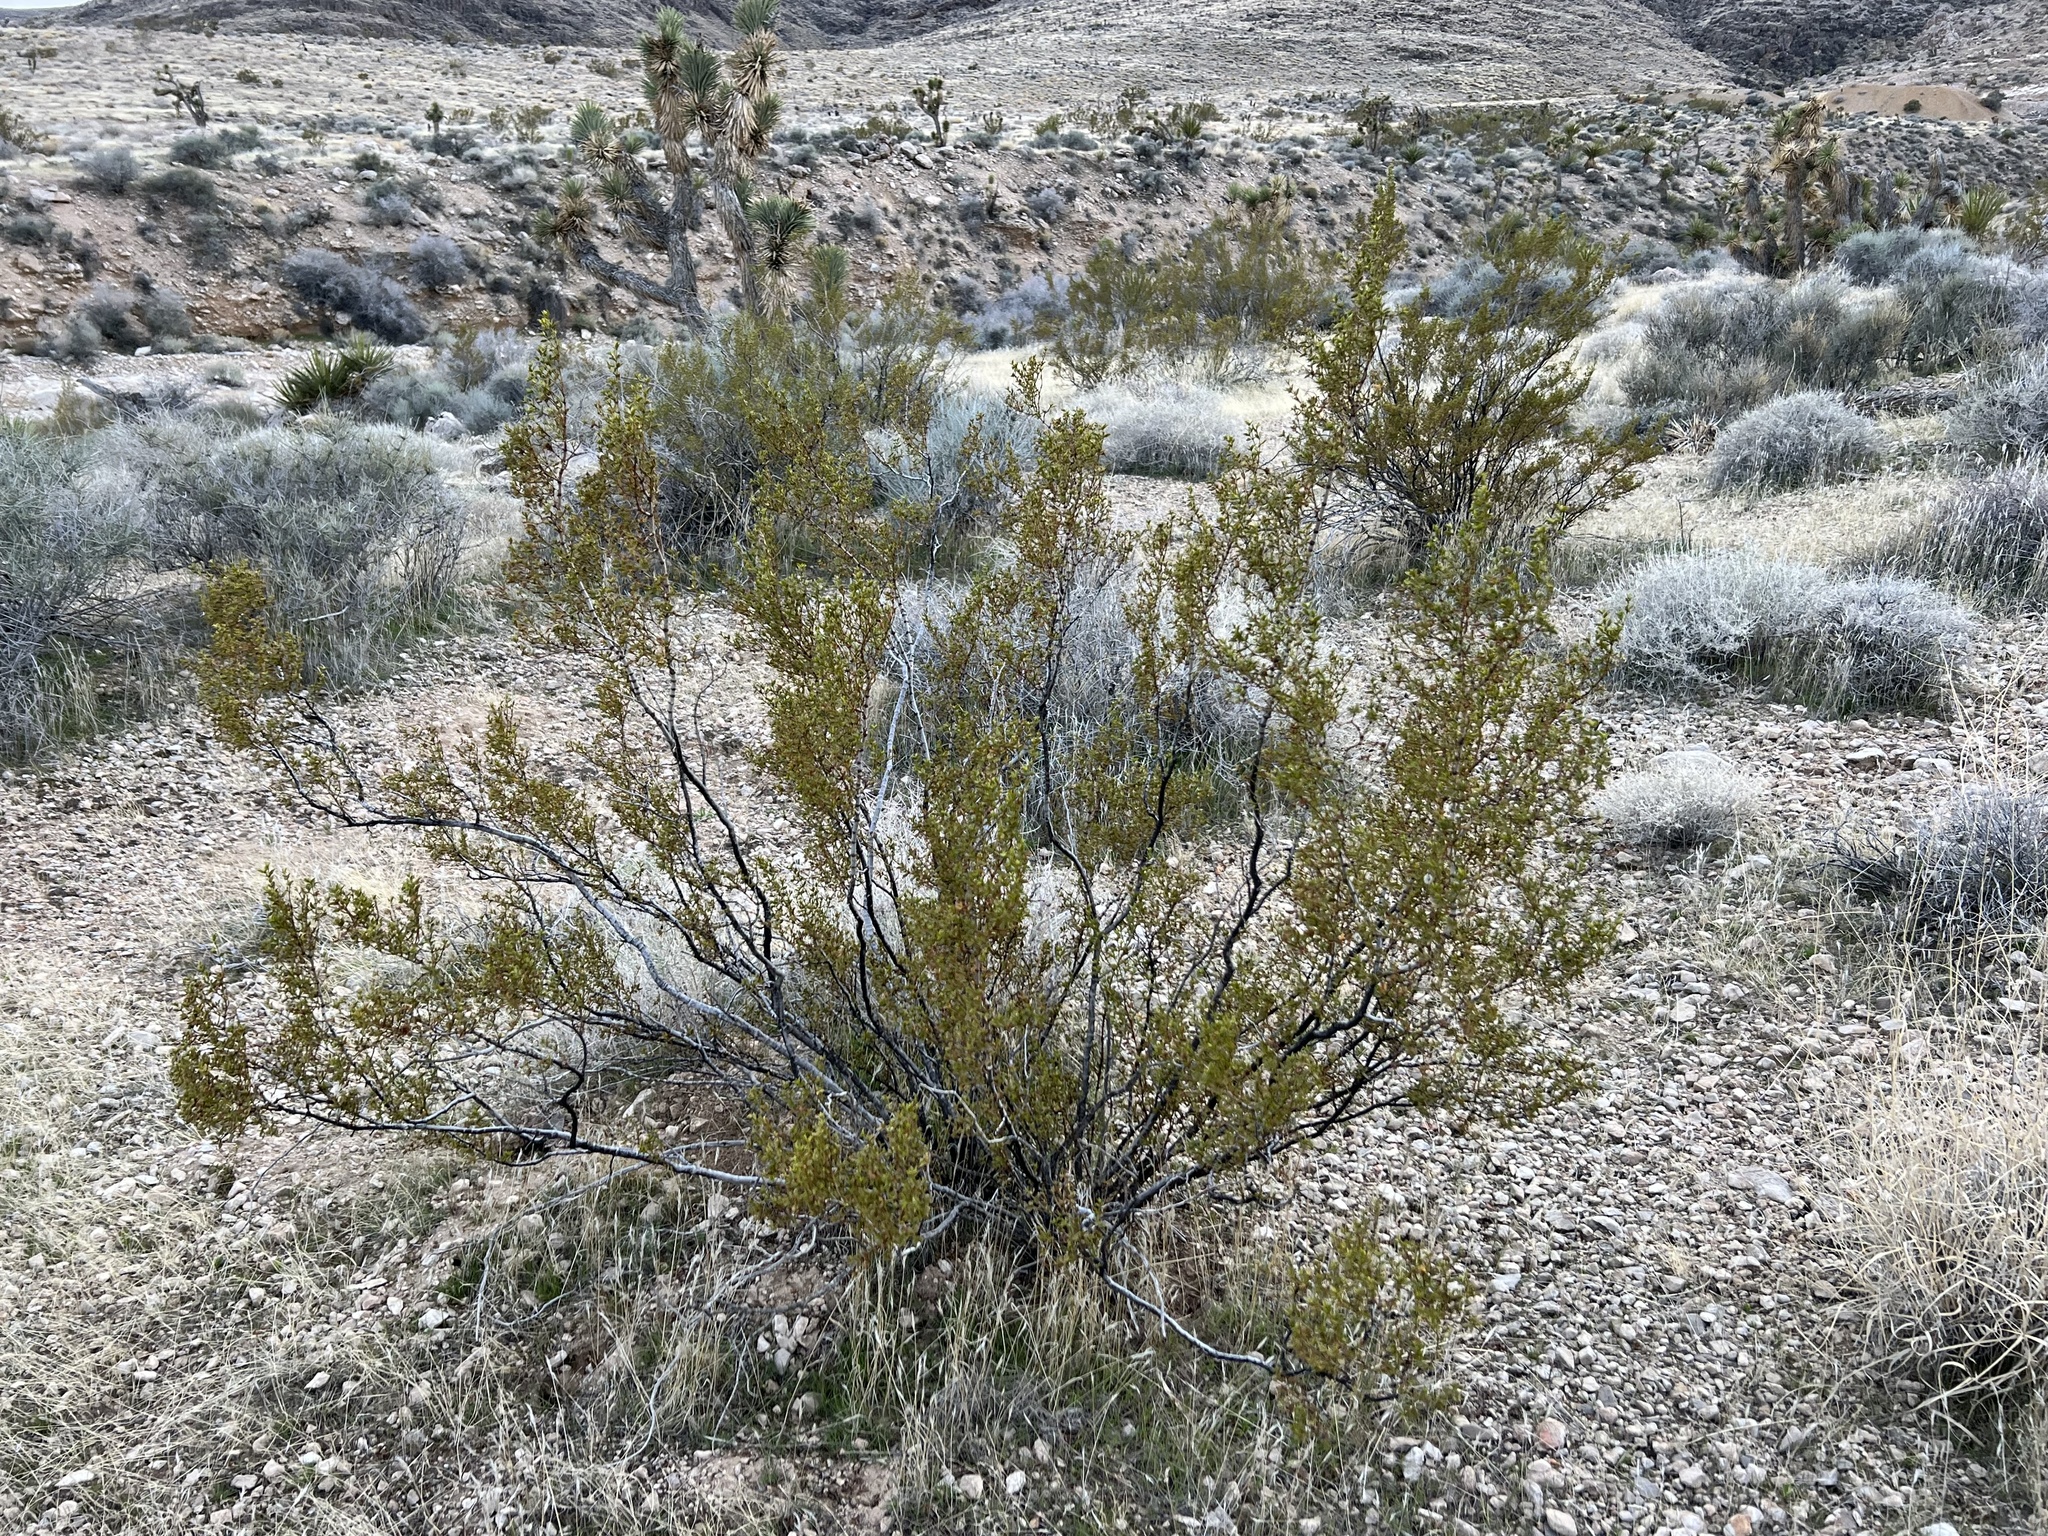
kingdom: Plantae
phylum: Tracheophyta
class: Magnoliopsida
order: Zygophyllales
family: Zygophyllaceae
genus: Larrea
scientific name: Larrea tridentata
